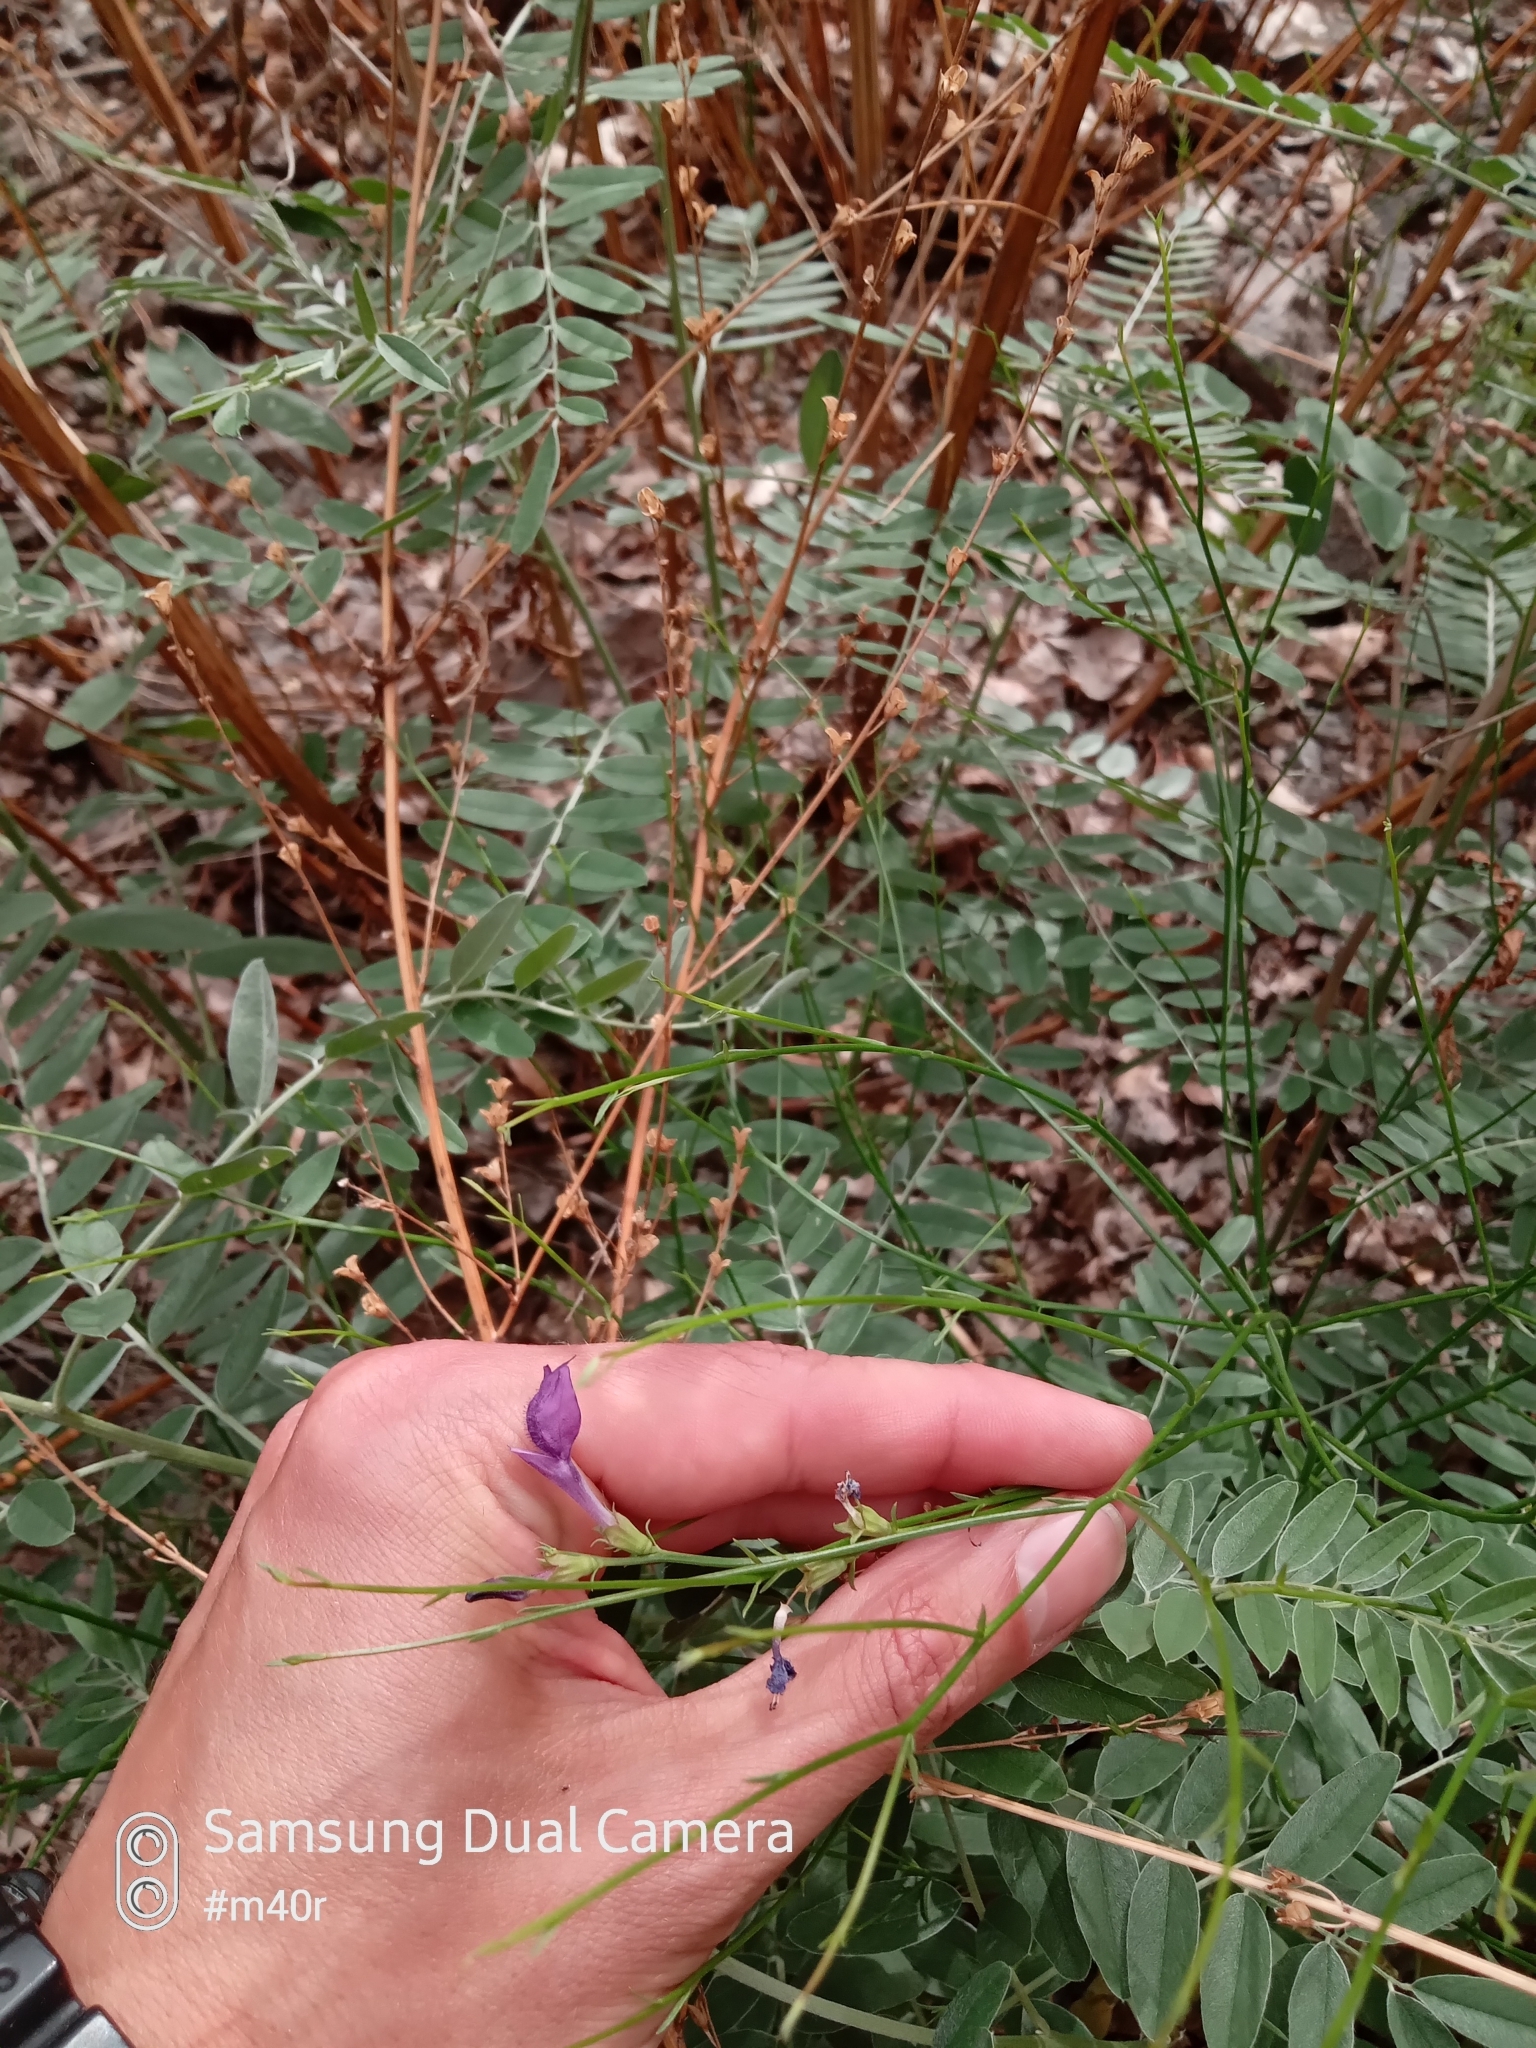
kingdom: Plantae
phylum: Tracheophyta
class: Magnoliopsida
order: Lamiales
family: Mazaceae
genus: Dodartia
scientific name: Dodartia orientalis
